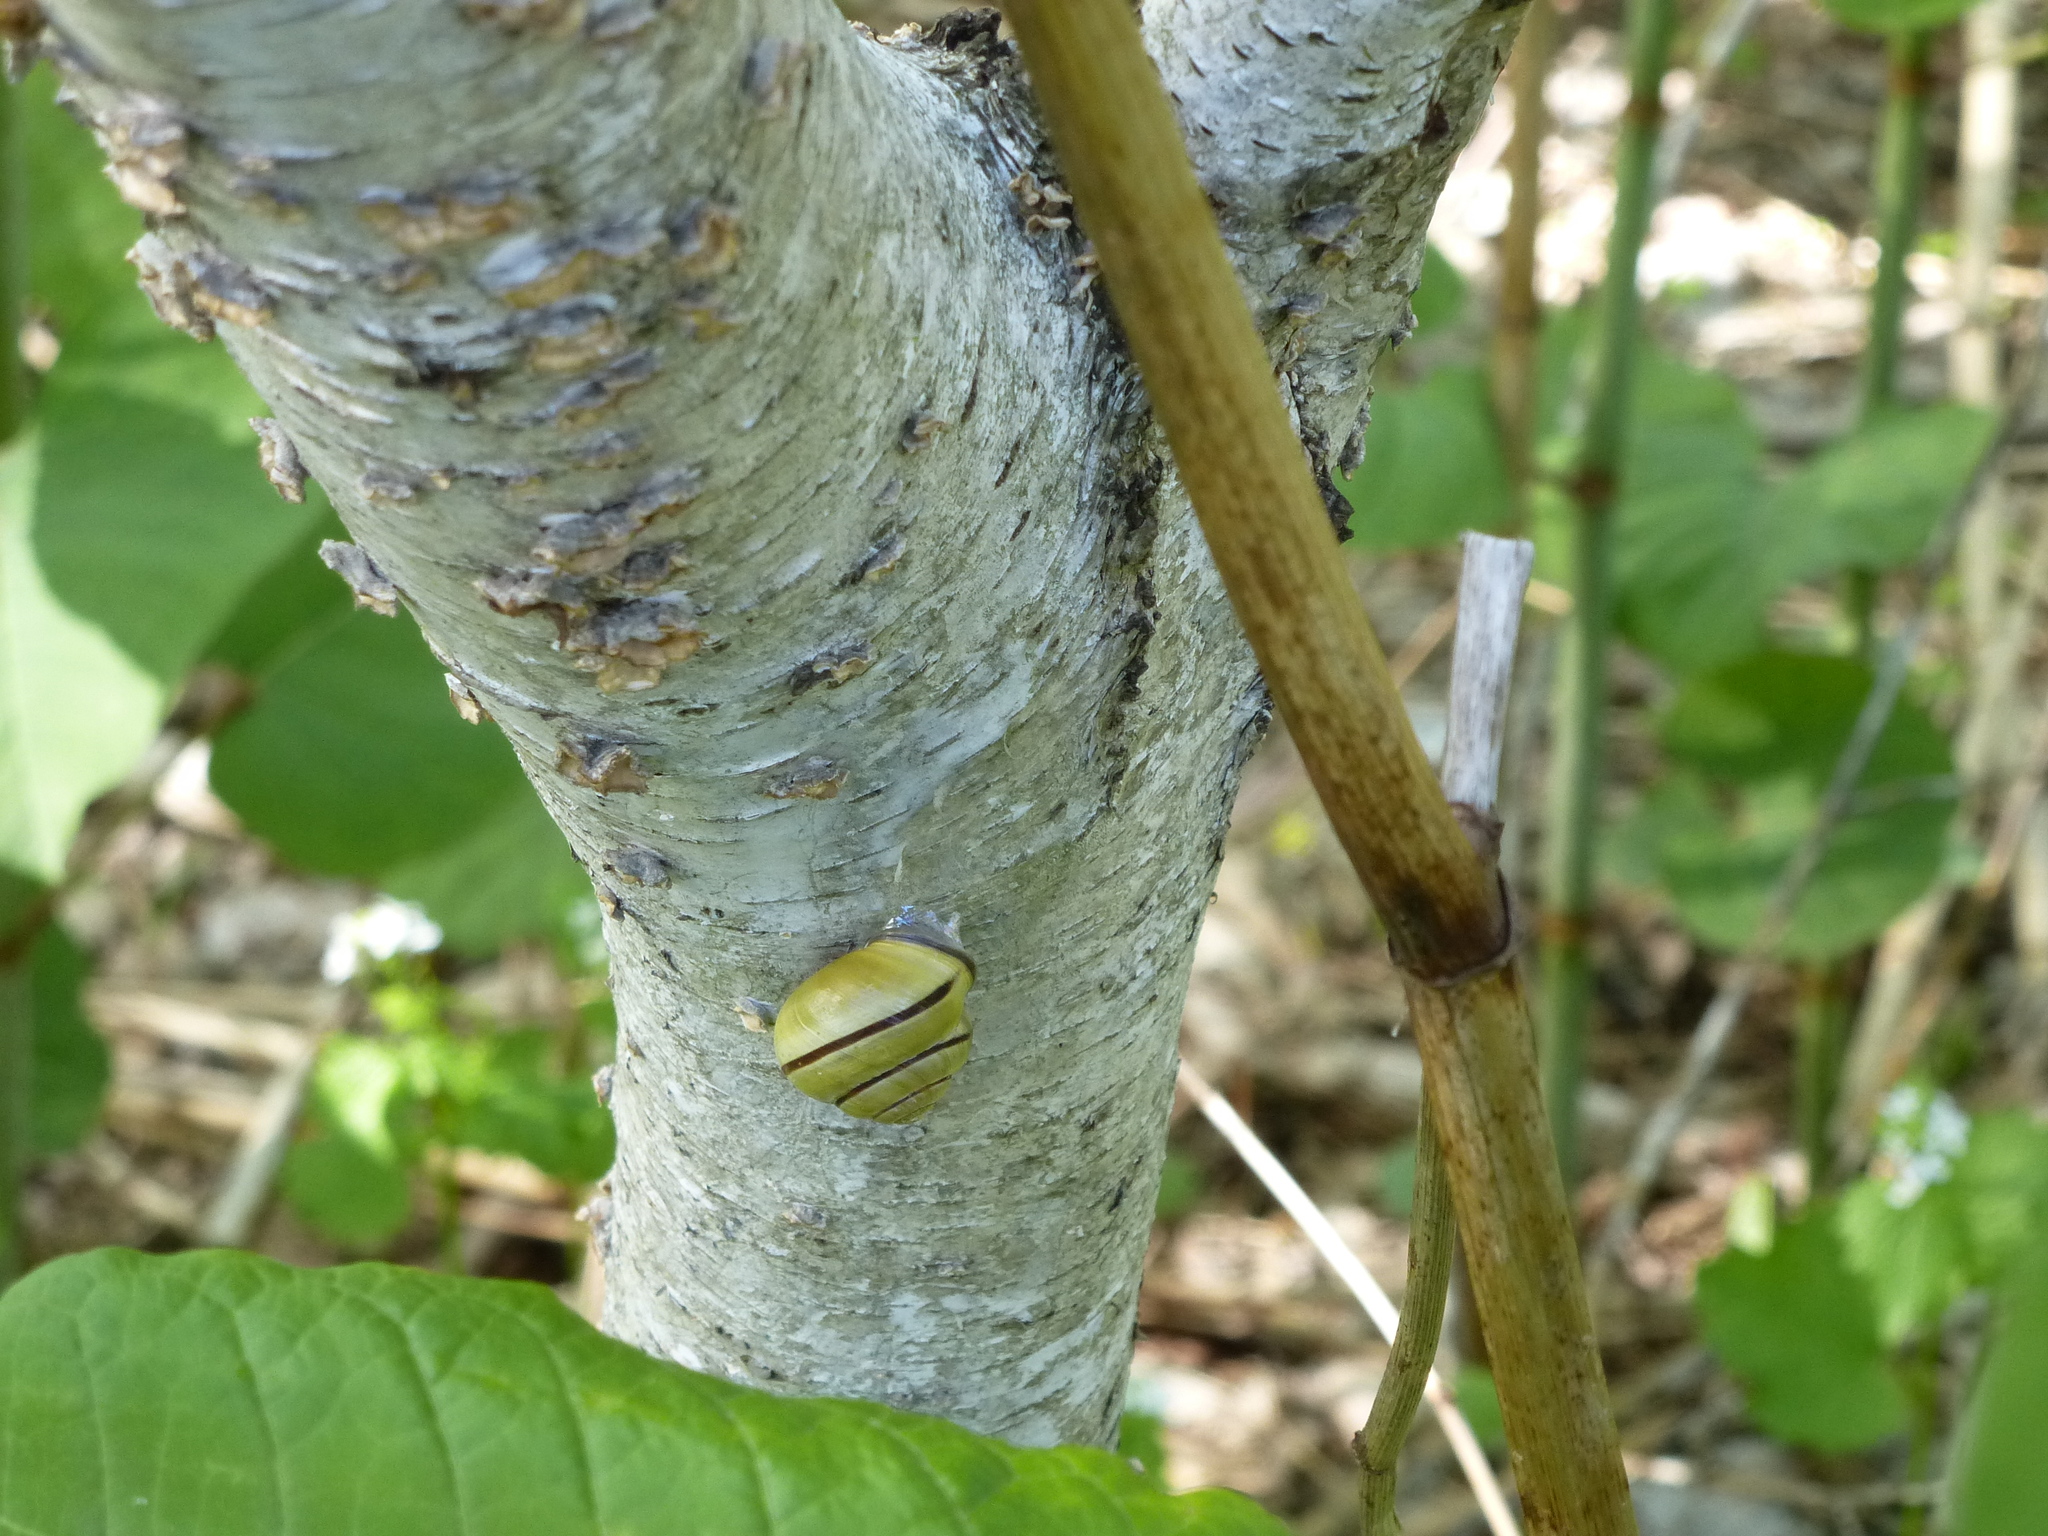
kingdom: Animalia
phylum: Mollusca
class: Gastropoda
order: Stylommatophora
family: Helicidae
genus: Cepaea
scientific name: Cepaea nemoralis
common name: Grovesnail
